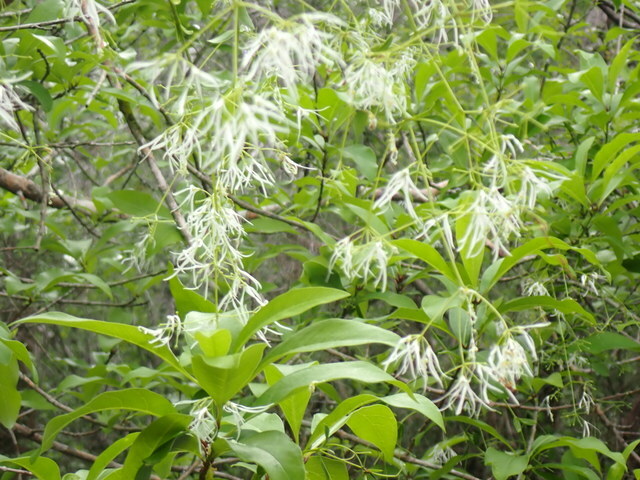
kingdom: Plantae
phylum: Tracheophyta
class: Magnoliopsida
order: Lamiales
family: Oleaceae
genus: Chionanthus
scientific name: Chionanthus virginicus
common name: American fringetree
